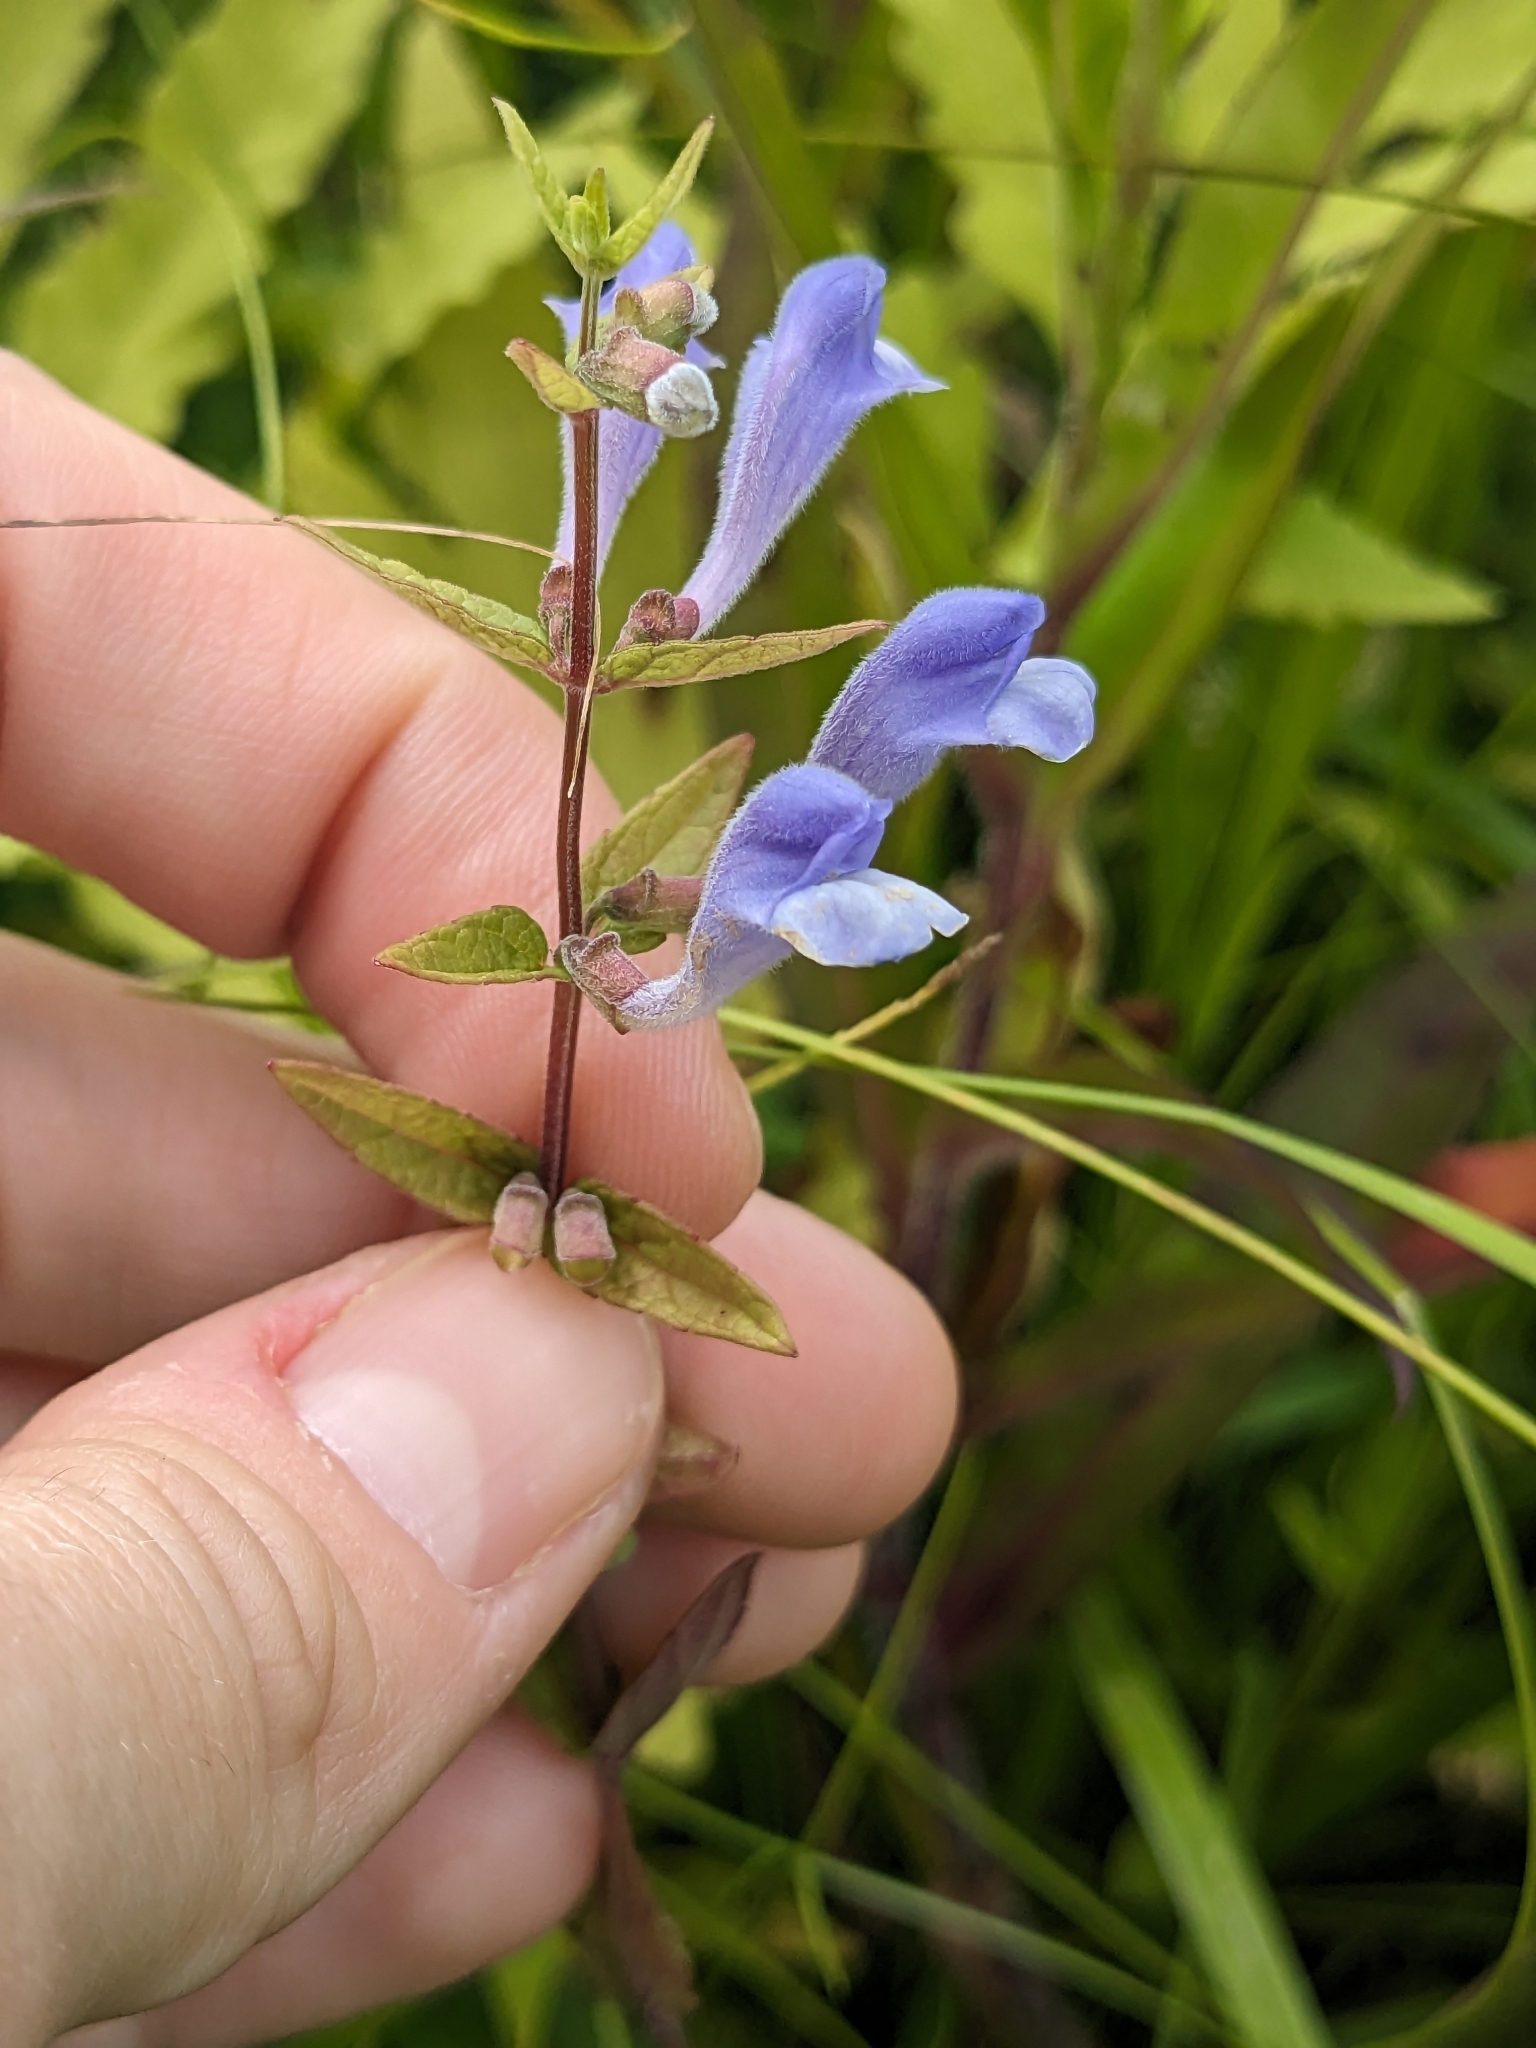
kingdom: Plantae
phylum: Tracheophyta
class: Magnoliopsida
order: Lamiales
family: Lamiaceae
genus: Scutellaria
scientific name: Scutellaria galericulata
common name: Skullcap
